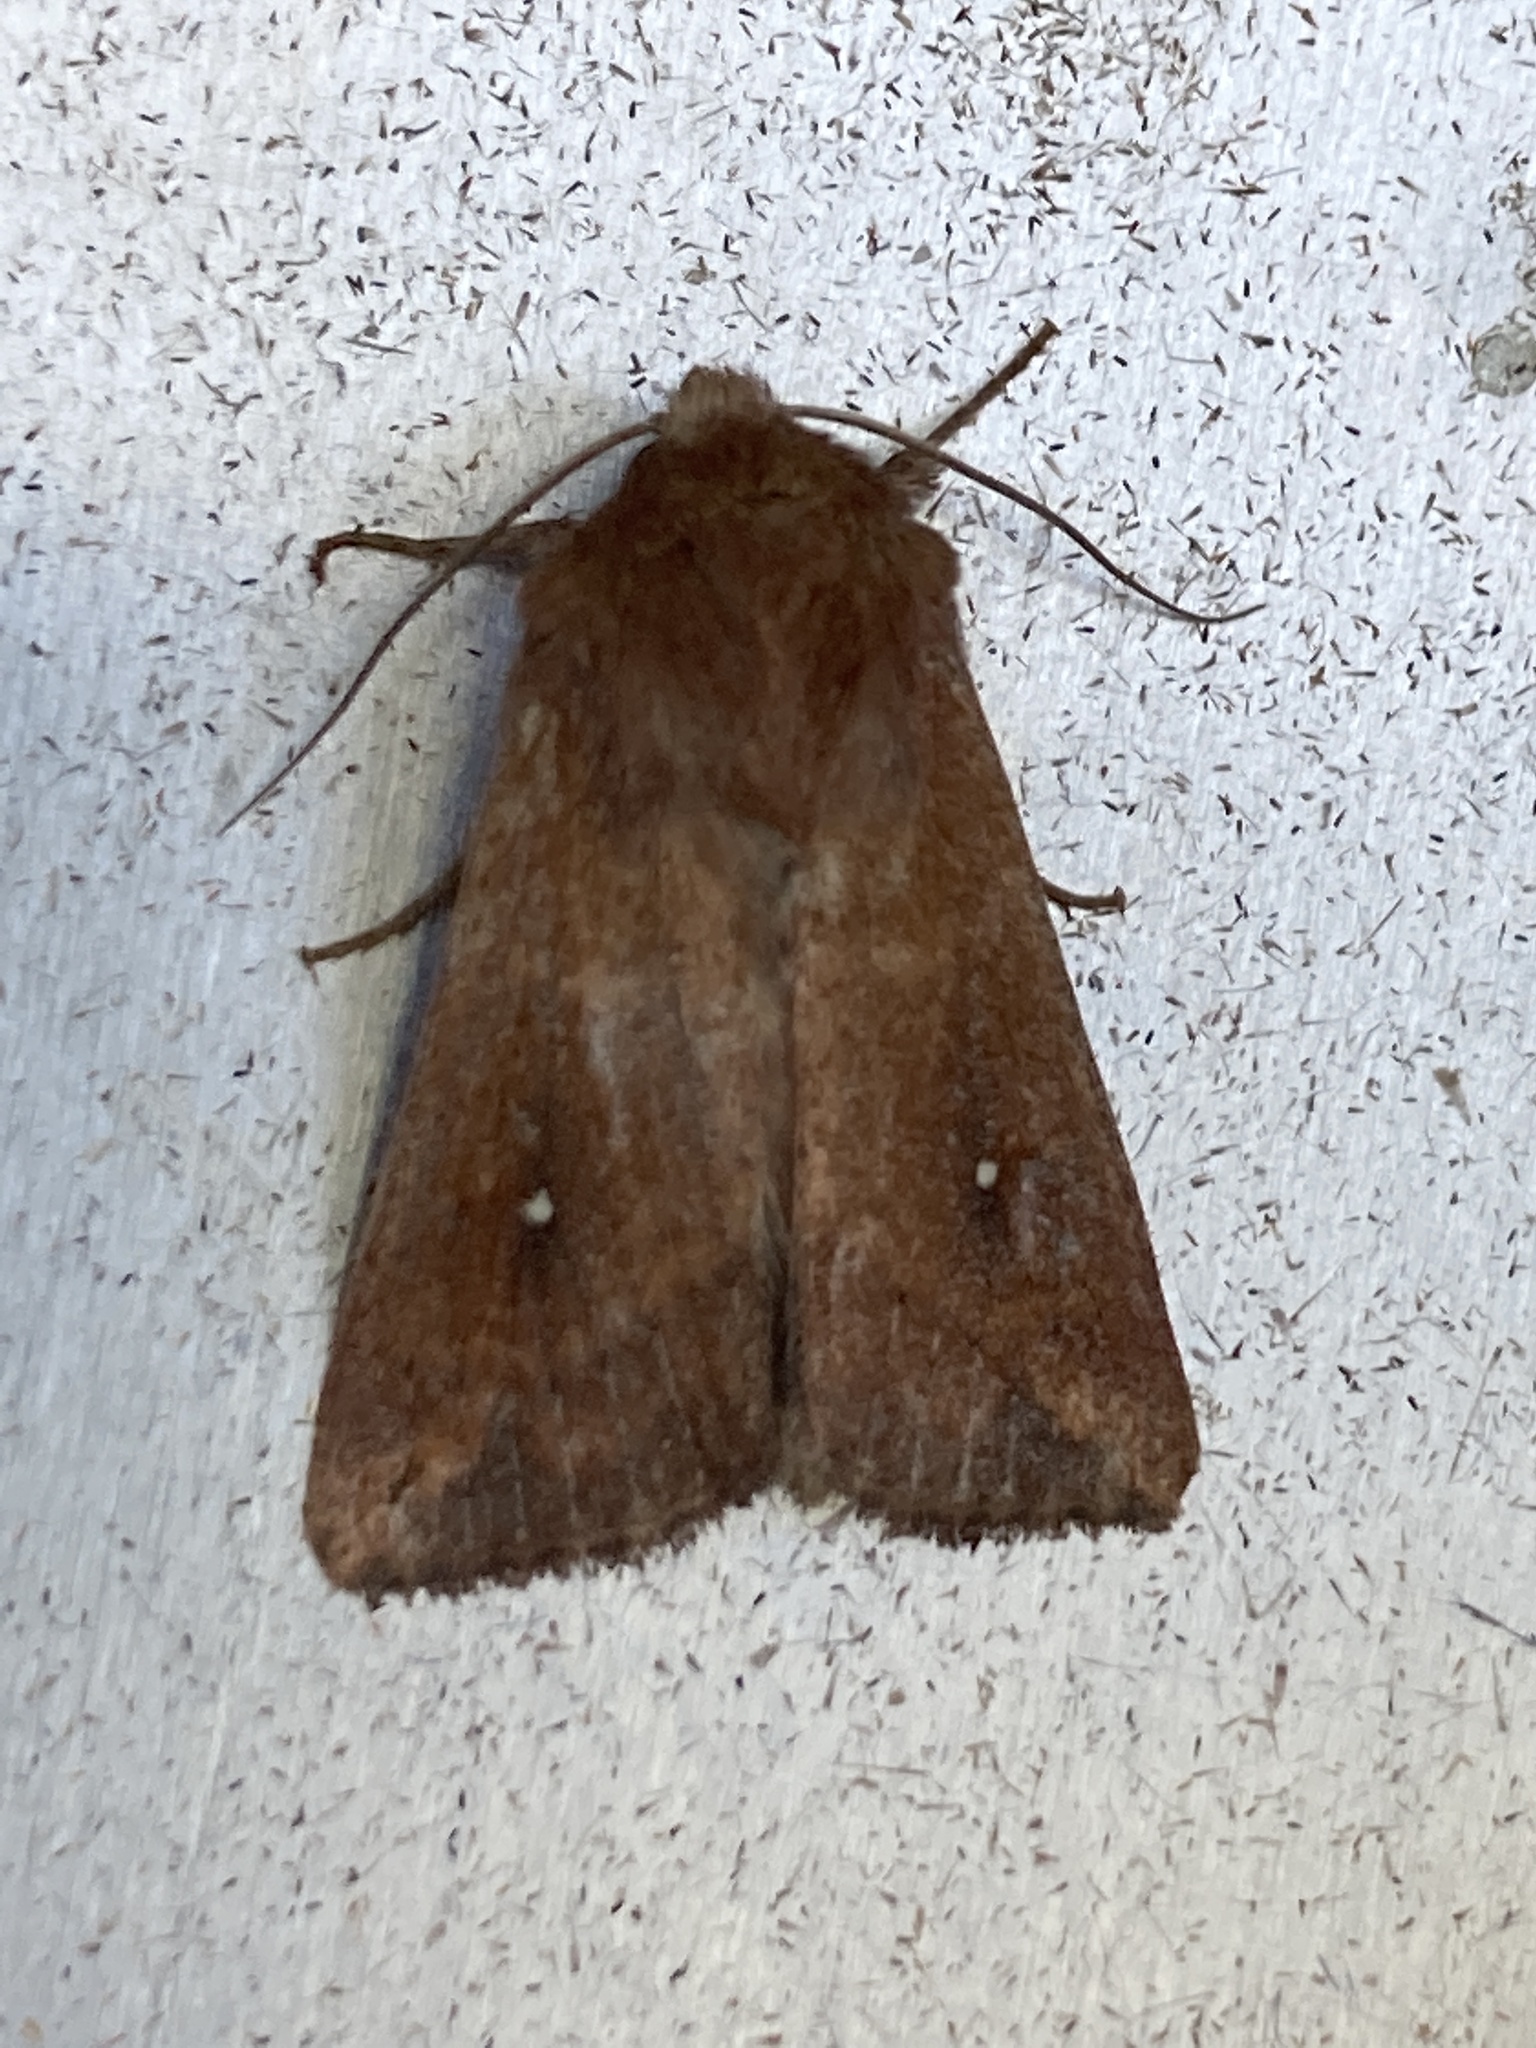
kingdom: Animalia
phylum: Arthropoda
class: Insecta
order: Lepidoptera
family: Noctuidae
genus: Mythimna
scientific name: Mythimna albipuncta
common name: White-point
